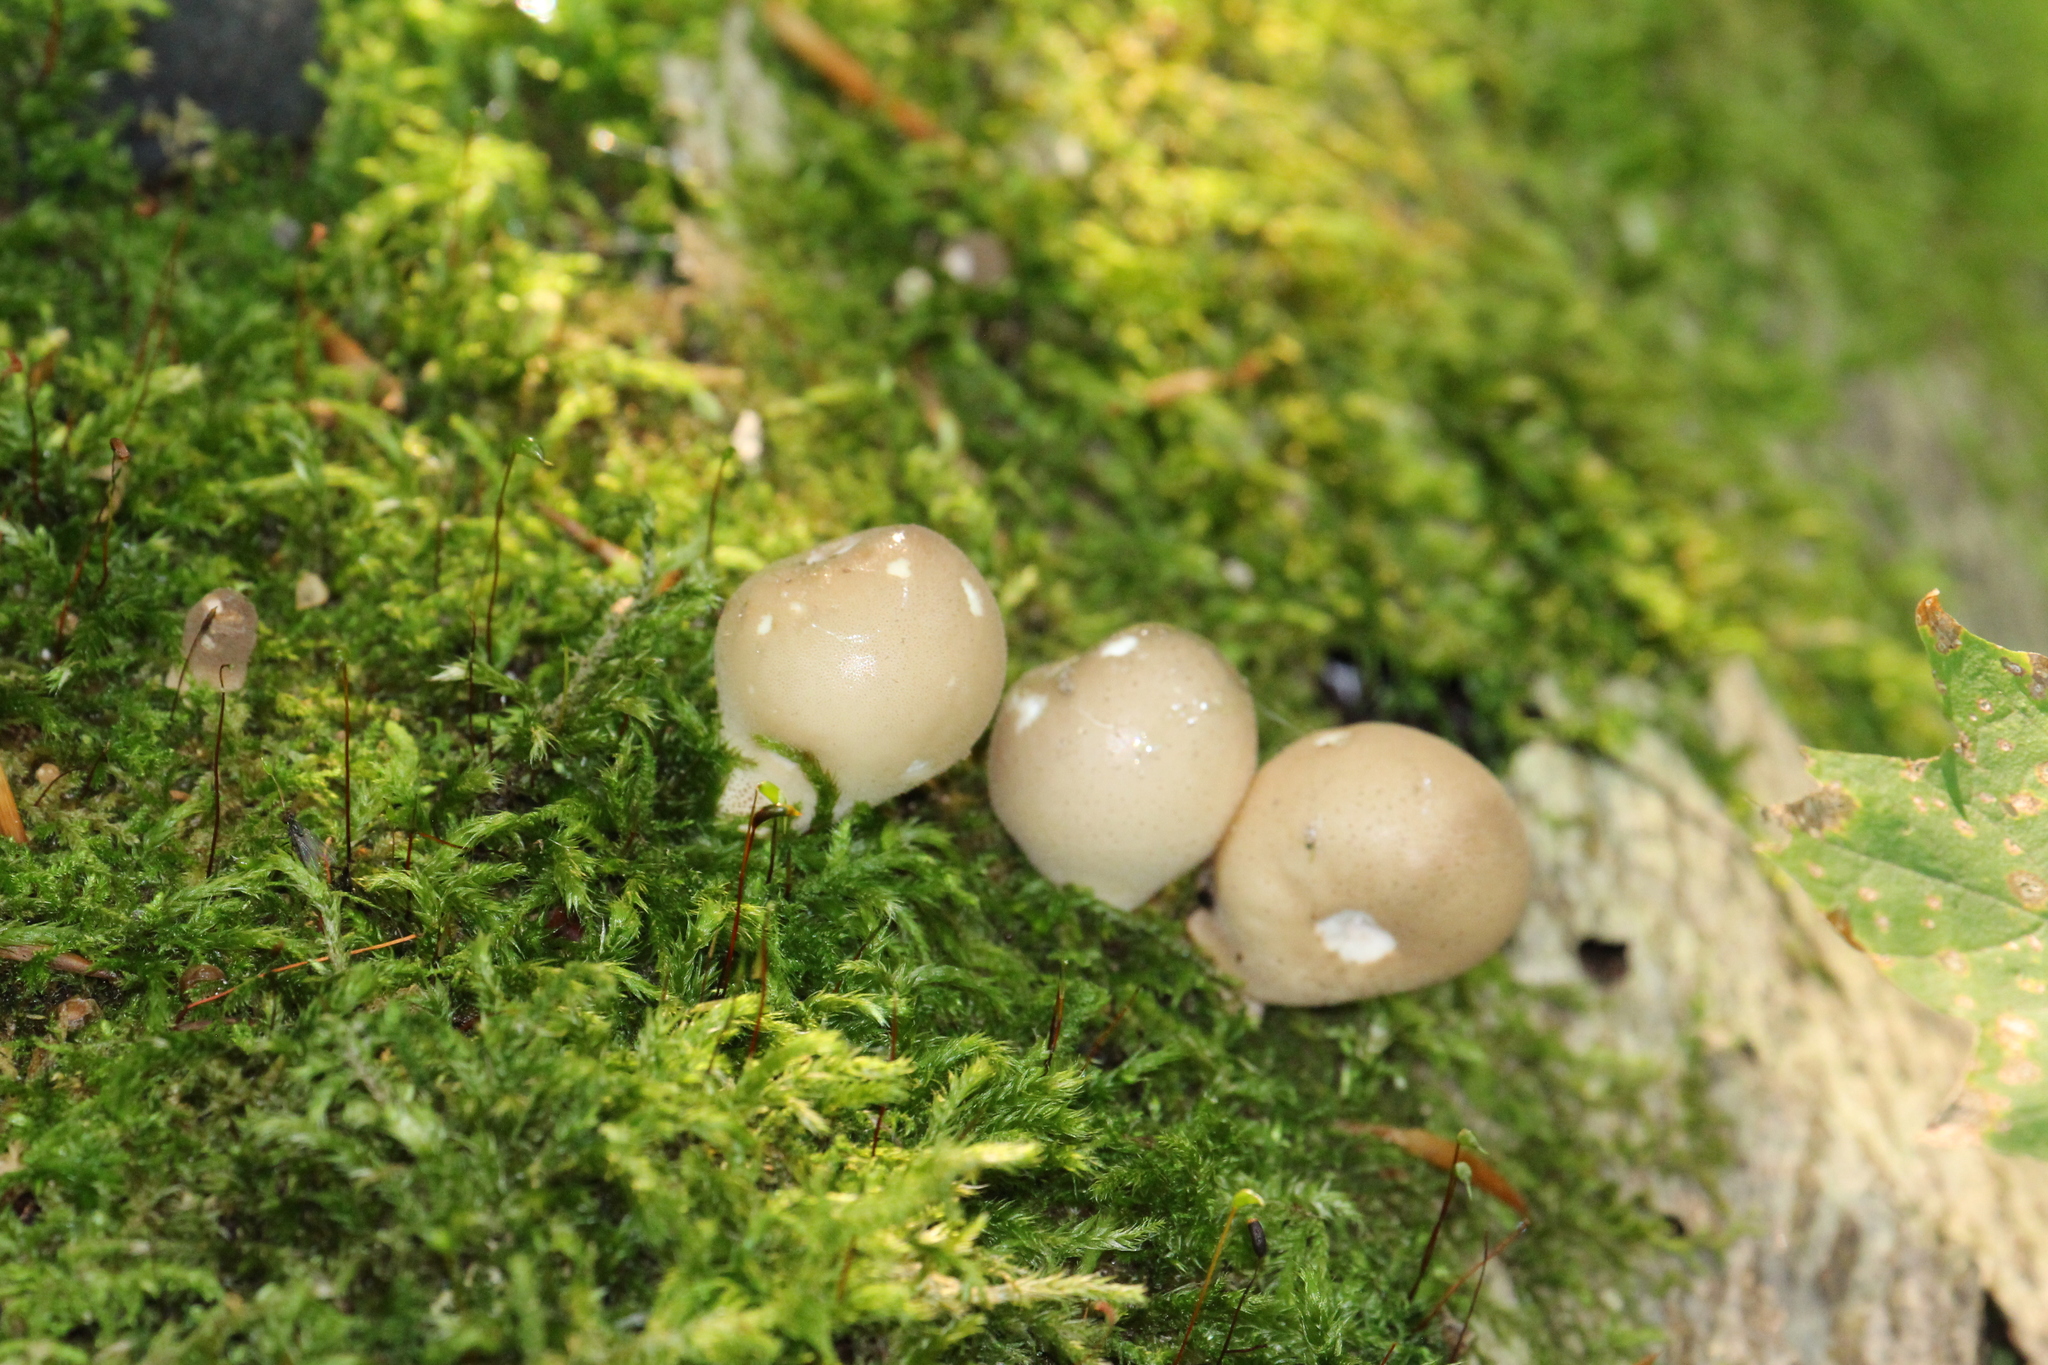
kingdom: Fungi
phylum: Basidiomycota
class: Agaricomycetes
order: Agaricales
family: Lycoperdaceae
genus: Apioperdon
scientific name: Apioperdon pyriforme
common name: Pear-shaped puffball
